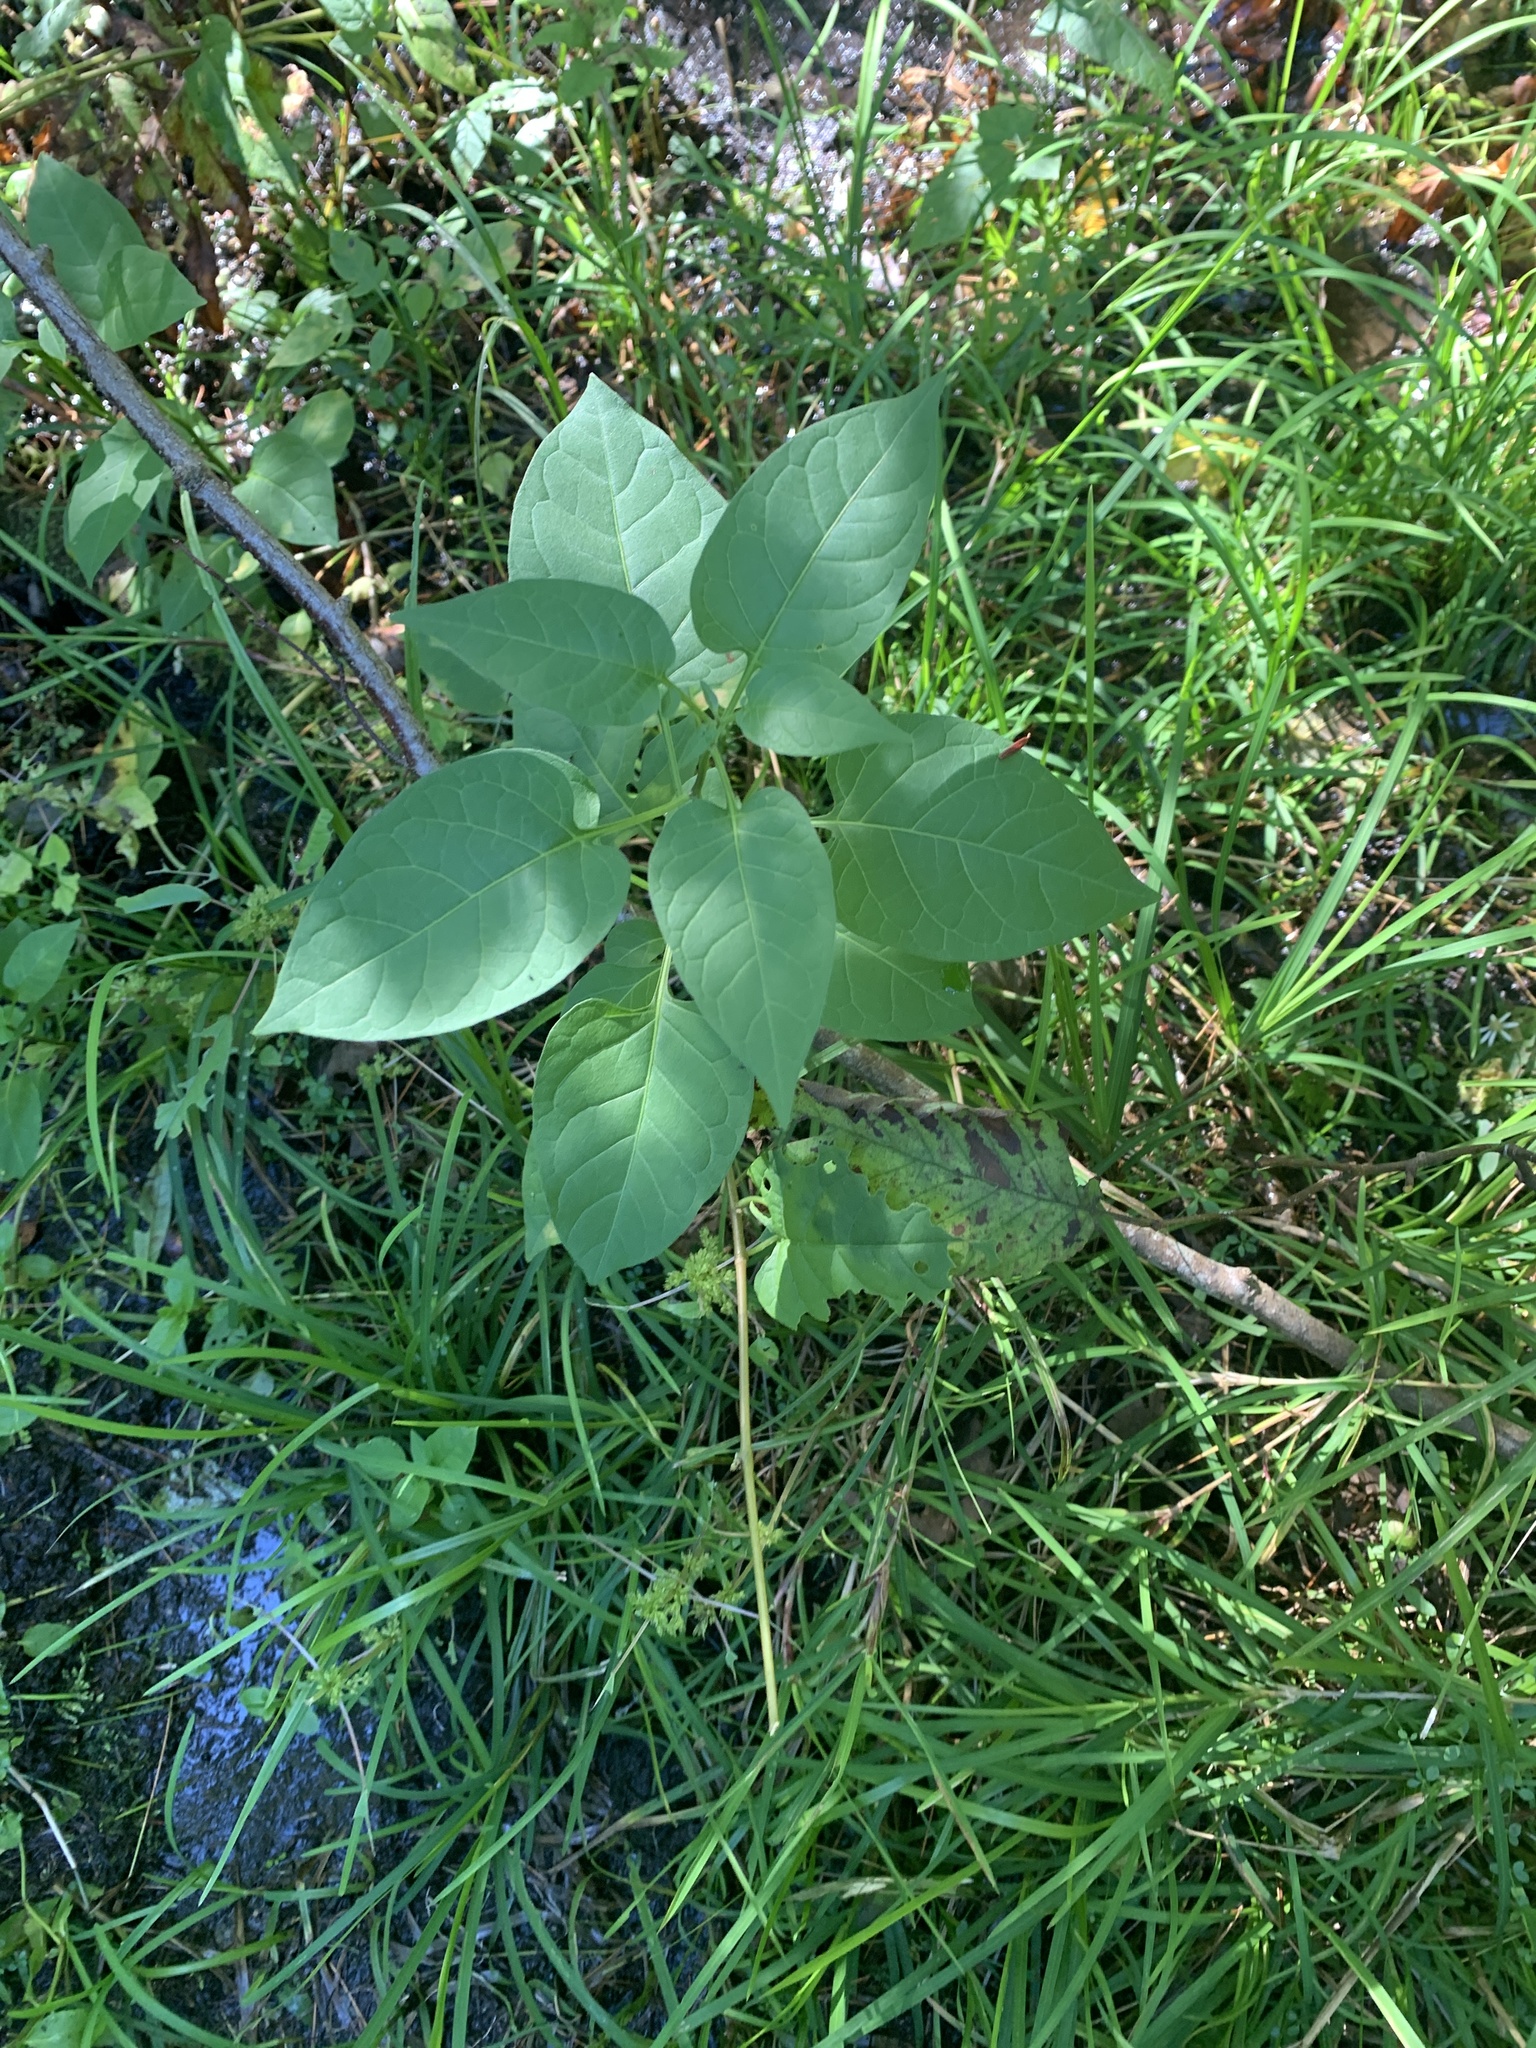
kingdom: Plantae
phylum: Tracheophyta
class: Magnoliopsida
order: Solanales
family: Solanaceae
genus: Solanum
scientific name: Solanum dulcamara
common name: Climbing nightshade
